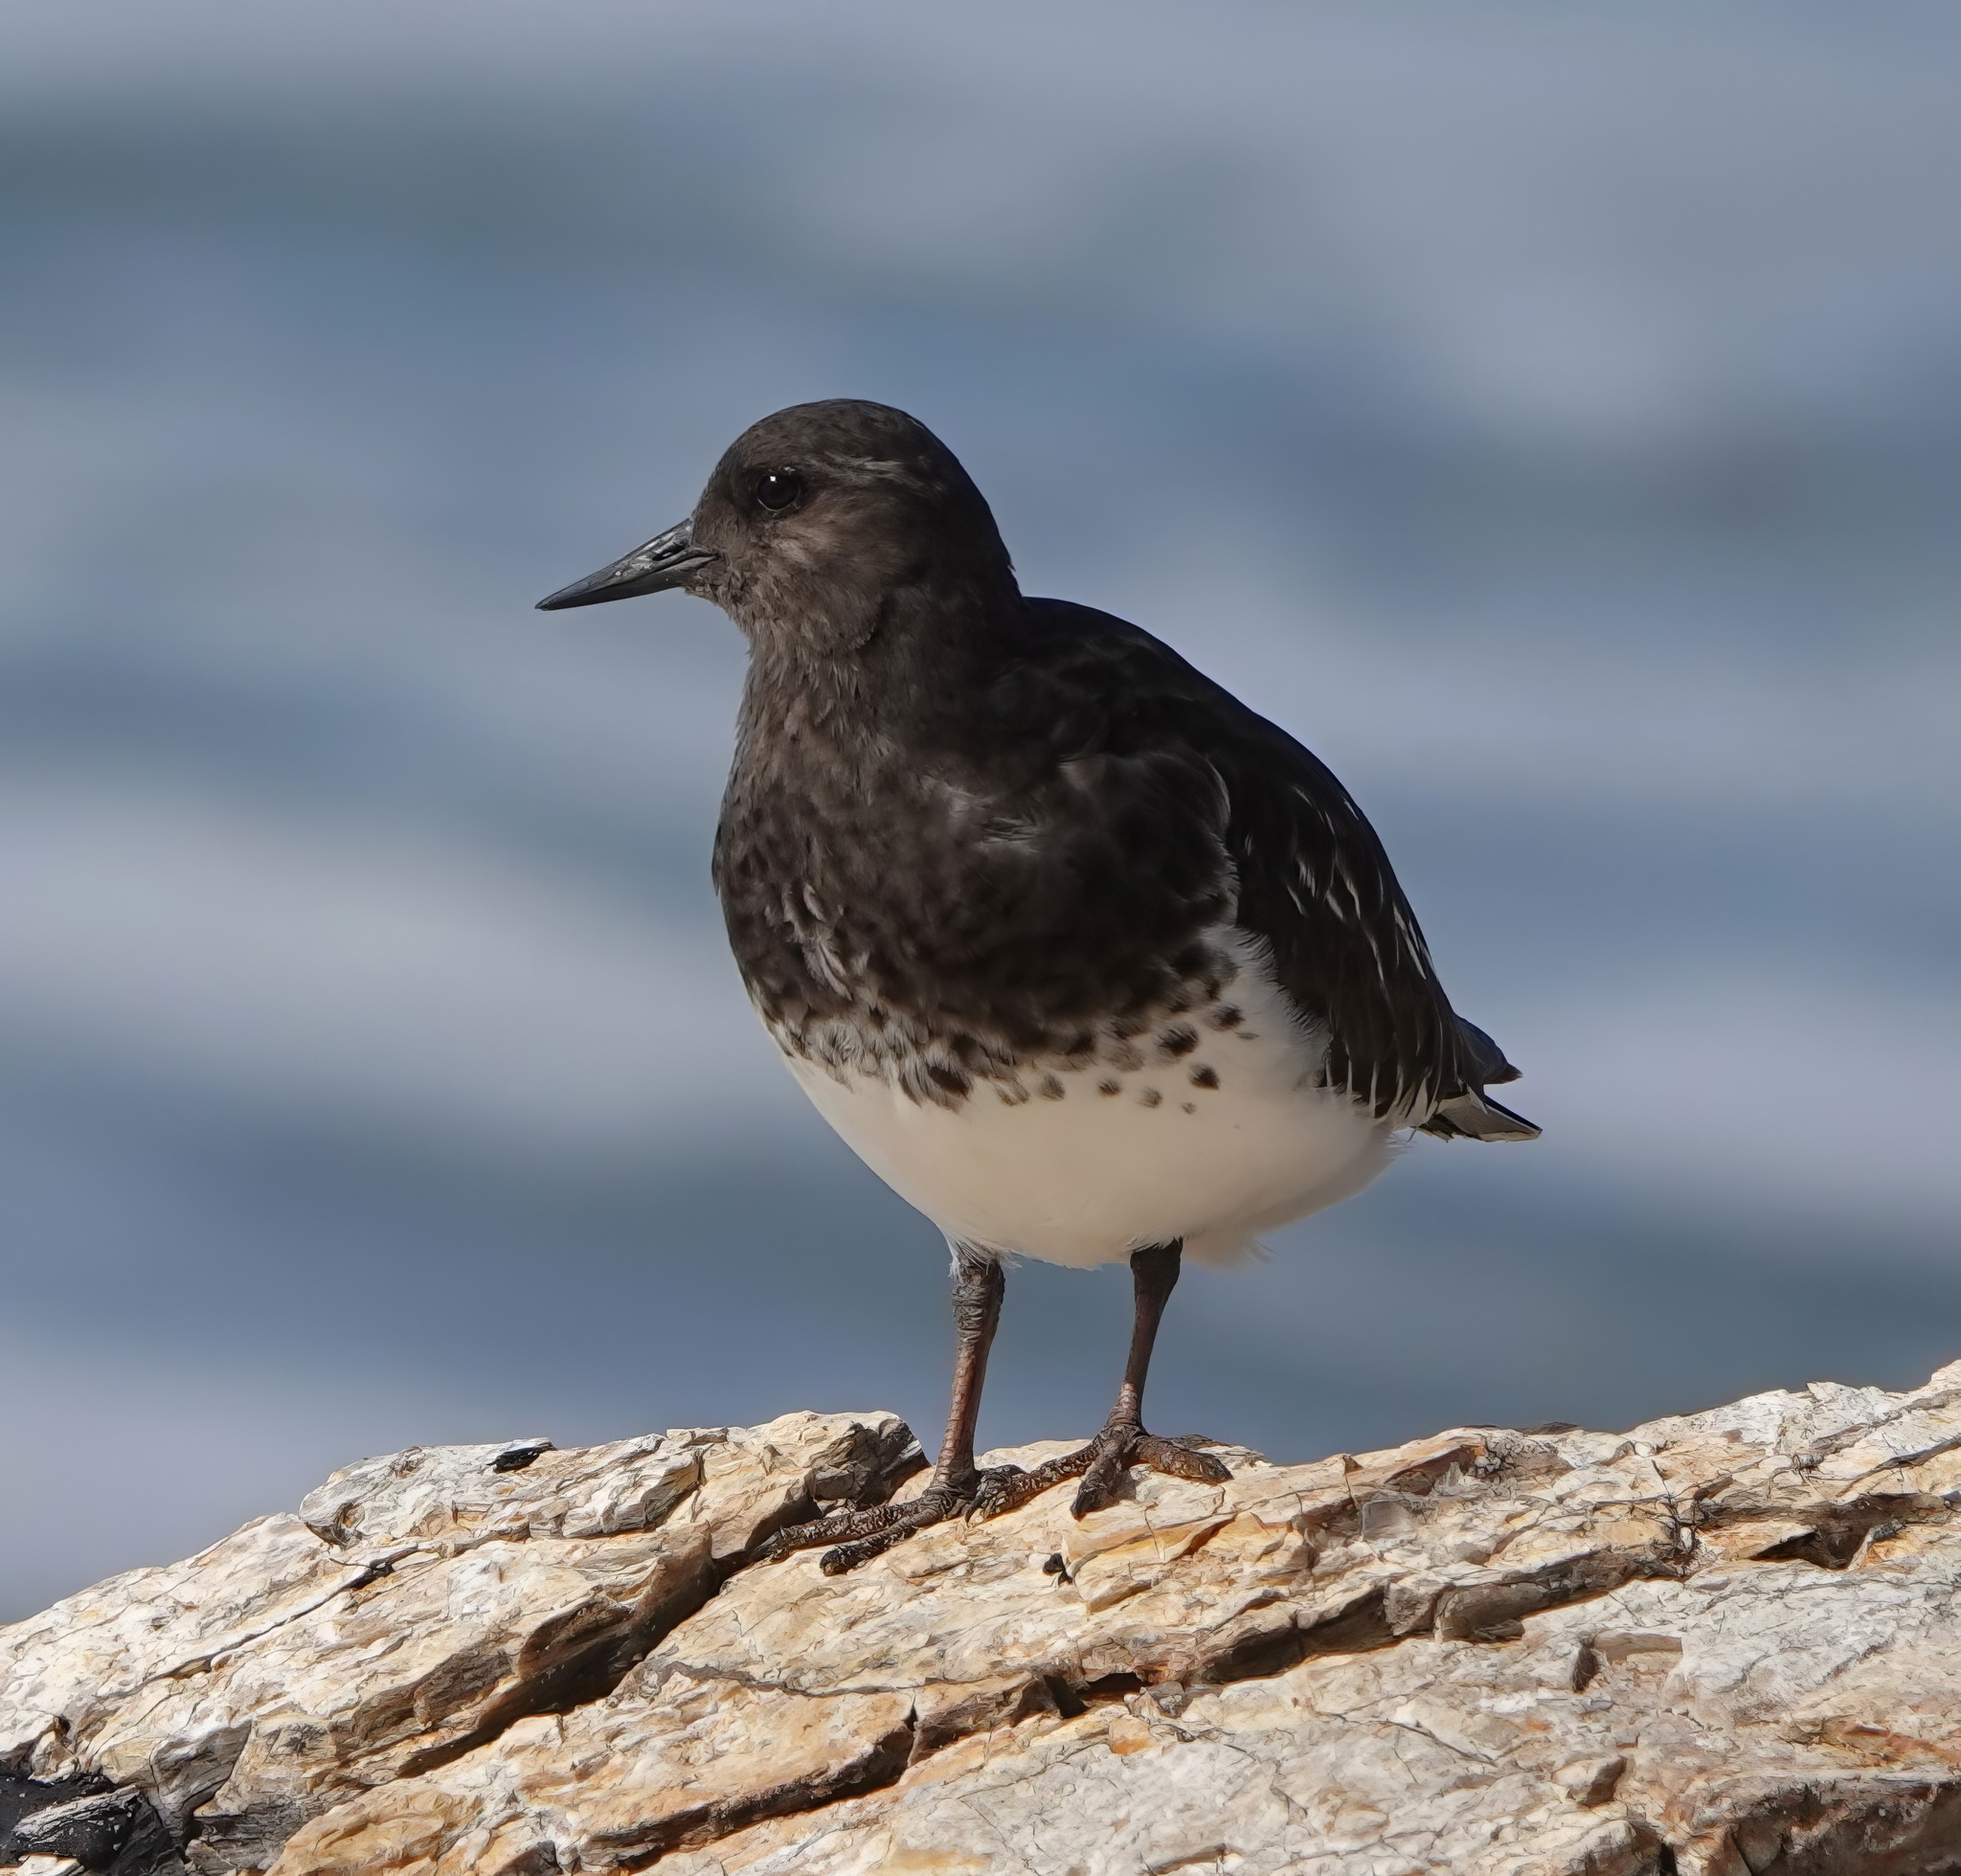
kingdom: Animalia
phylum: Chordata
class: Aves
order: Charadriiformes
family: Scolopacidae
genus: Arenaria
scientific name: Arenaria melanocephala
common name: Black turnstone
